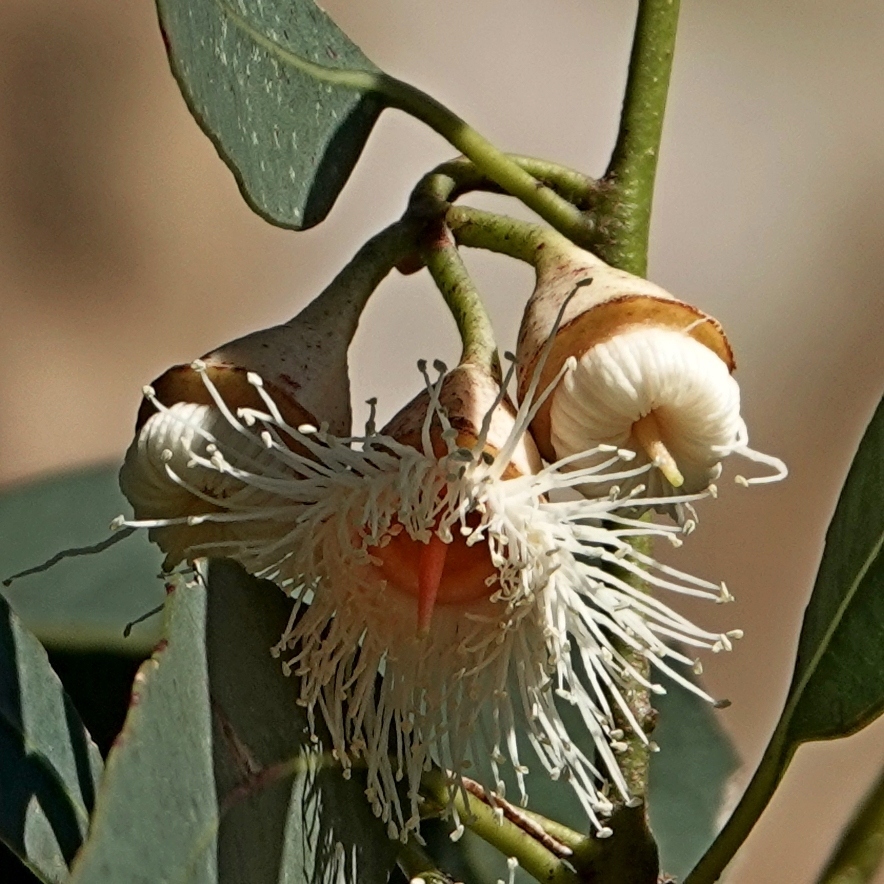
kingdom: Plantae
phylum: Tracheophyta
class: Magnoliopsida
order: Myrtales
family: Myrtaceae
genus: Eucalyptus
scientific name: Eucalyptus longifolia
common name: Woollybutt
